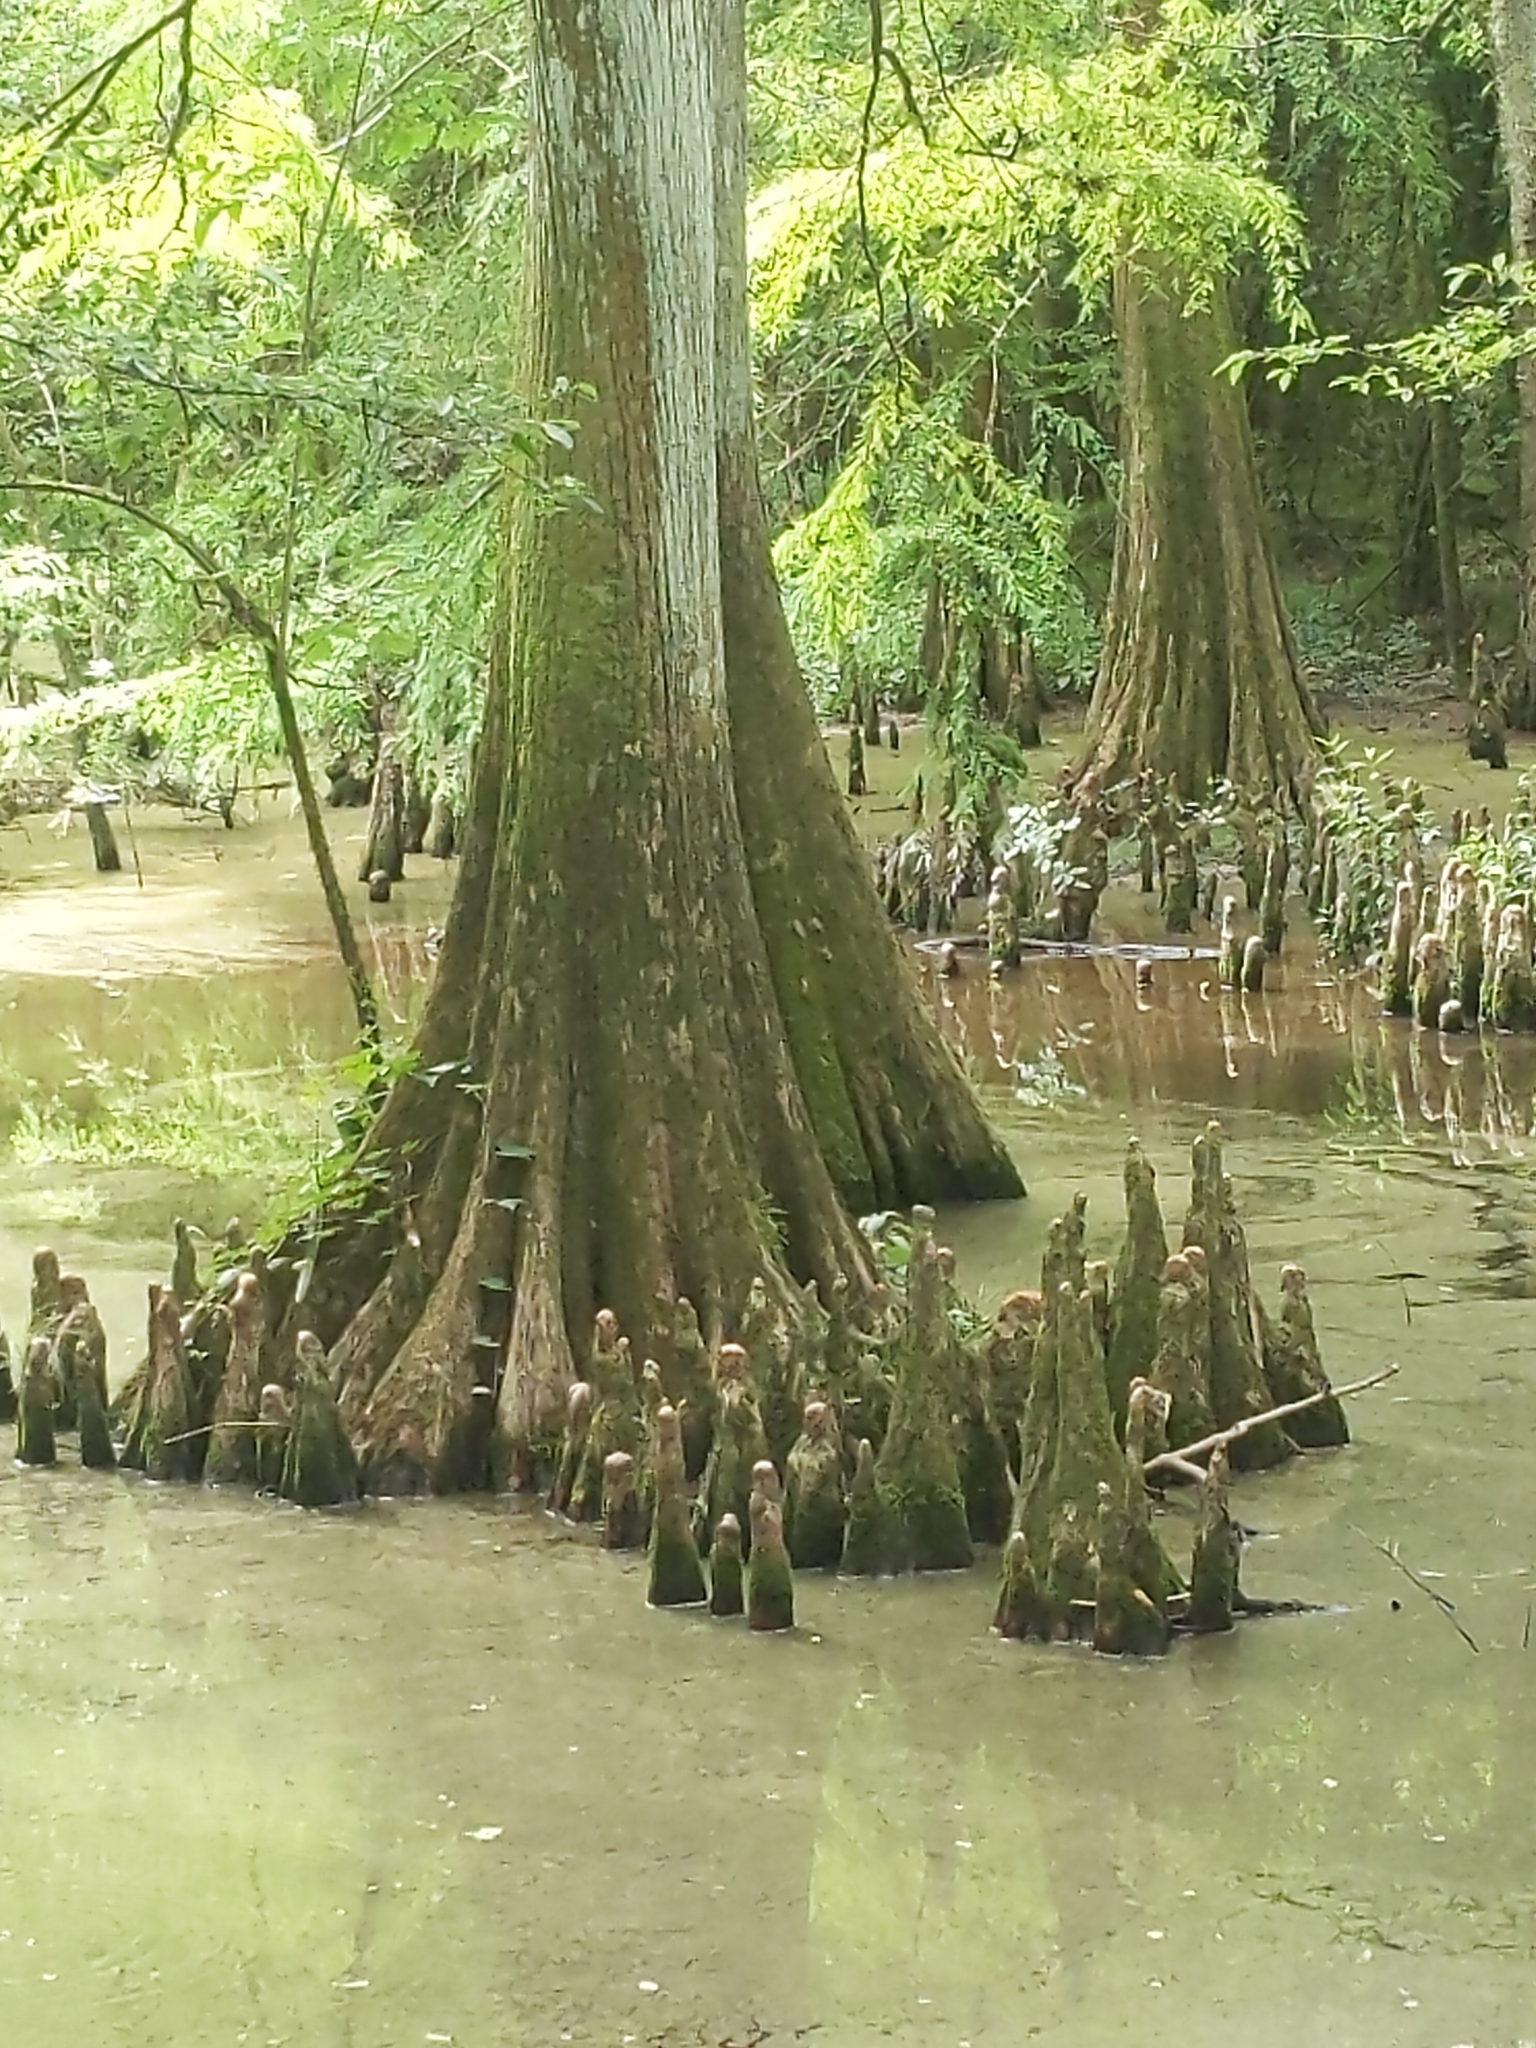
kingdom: Plantae
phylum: Tracheophyta
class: Pinopsida
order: Pinales
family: Cupressaceae
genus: Taxodium
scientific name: Taxodium distichum
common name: Bald cypress
